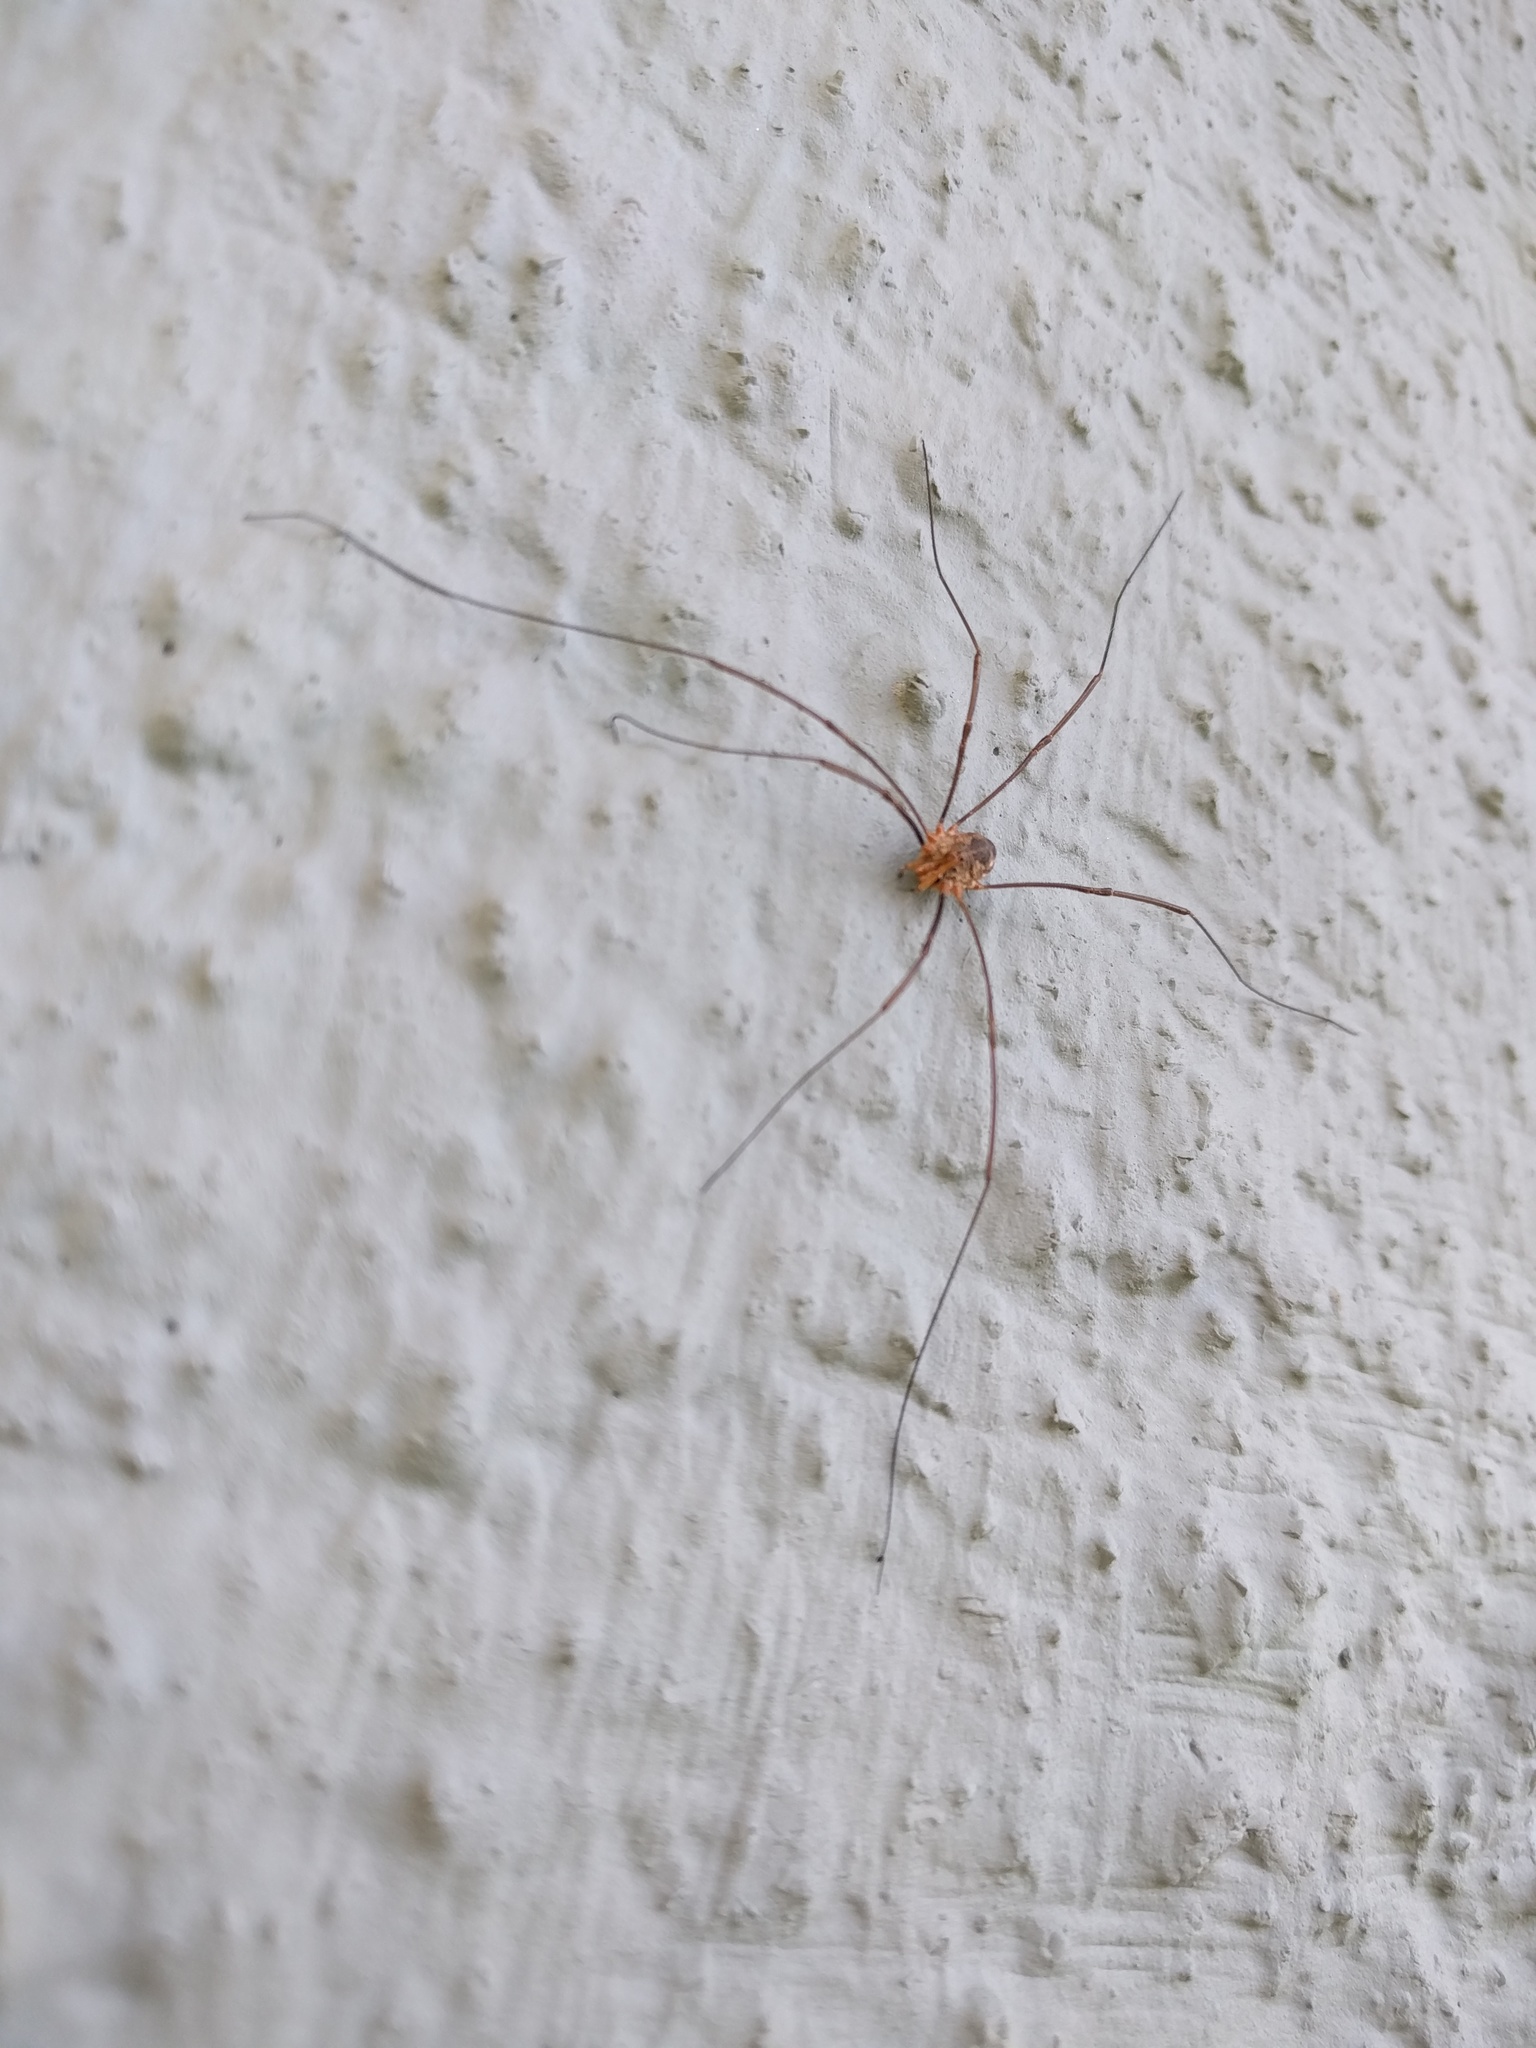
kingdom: Animalia
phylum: Arthropoda
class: Arachnida
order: Opiliones
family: Phalangiidae
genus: Phalangium
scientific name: Phalangium opilio
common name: Daddy longleg
